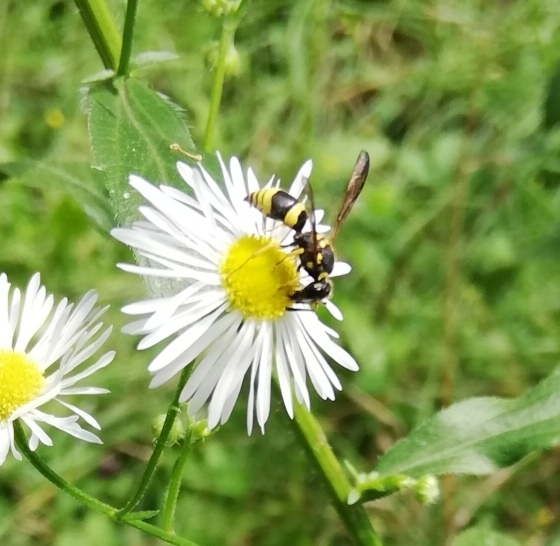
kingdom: Animalia
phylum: Arthropoda
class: Insecta
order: Hymenoptera
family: Vespidae
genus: Ancistrocerus
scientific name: Ancistrocerus gazella
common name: European tube wasp
